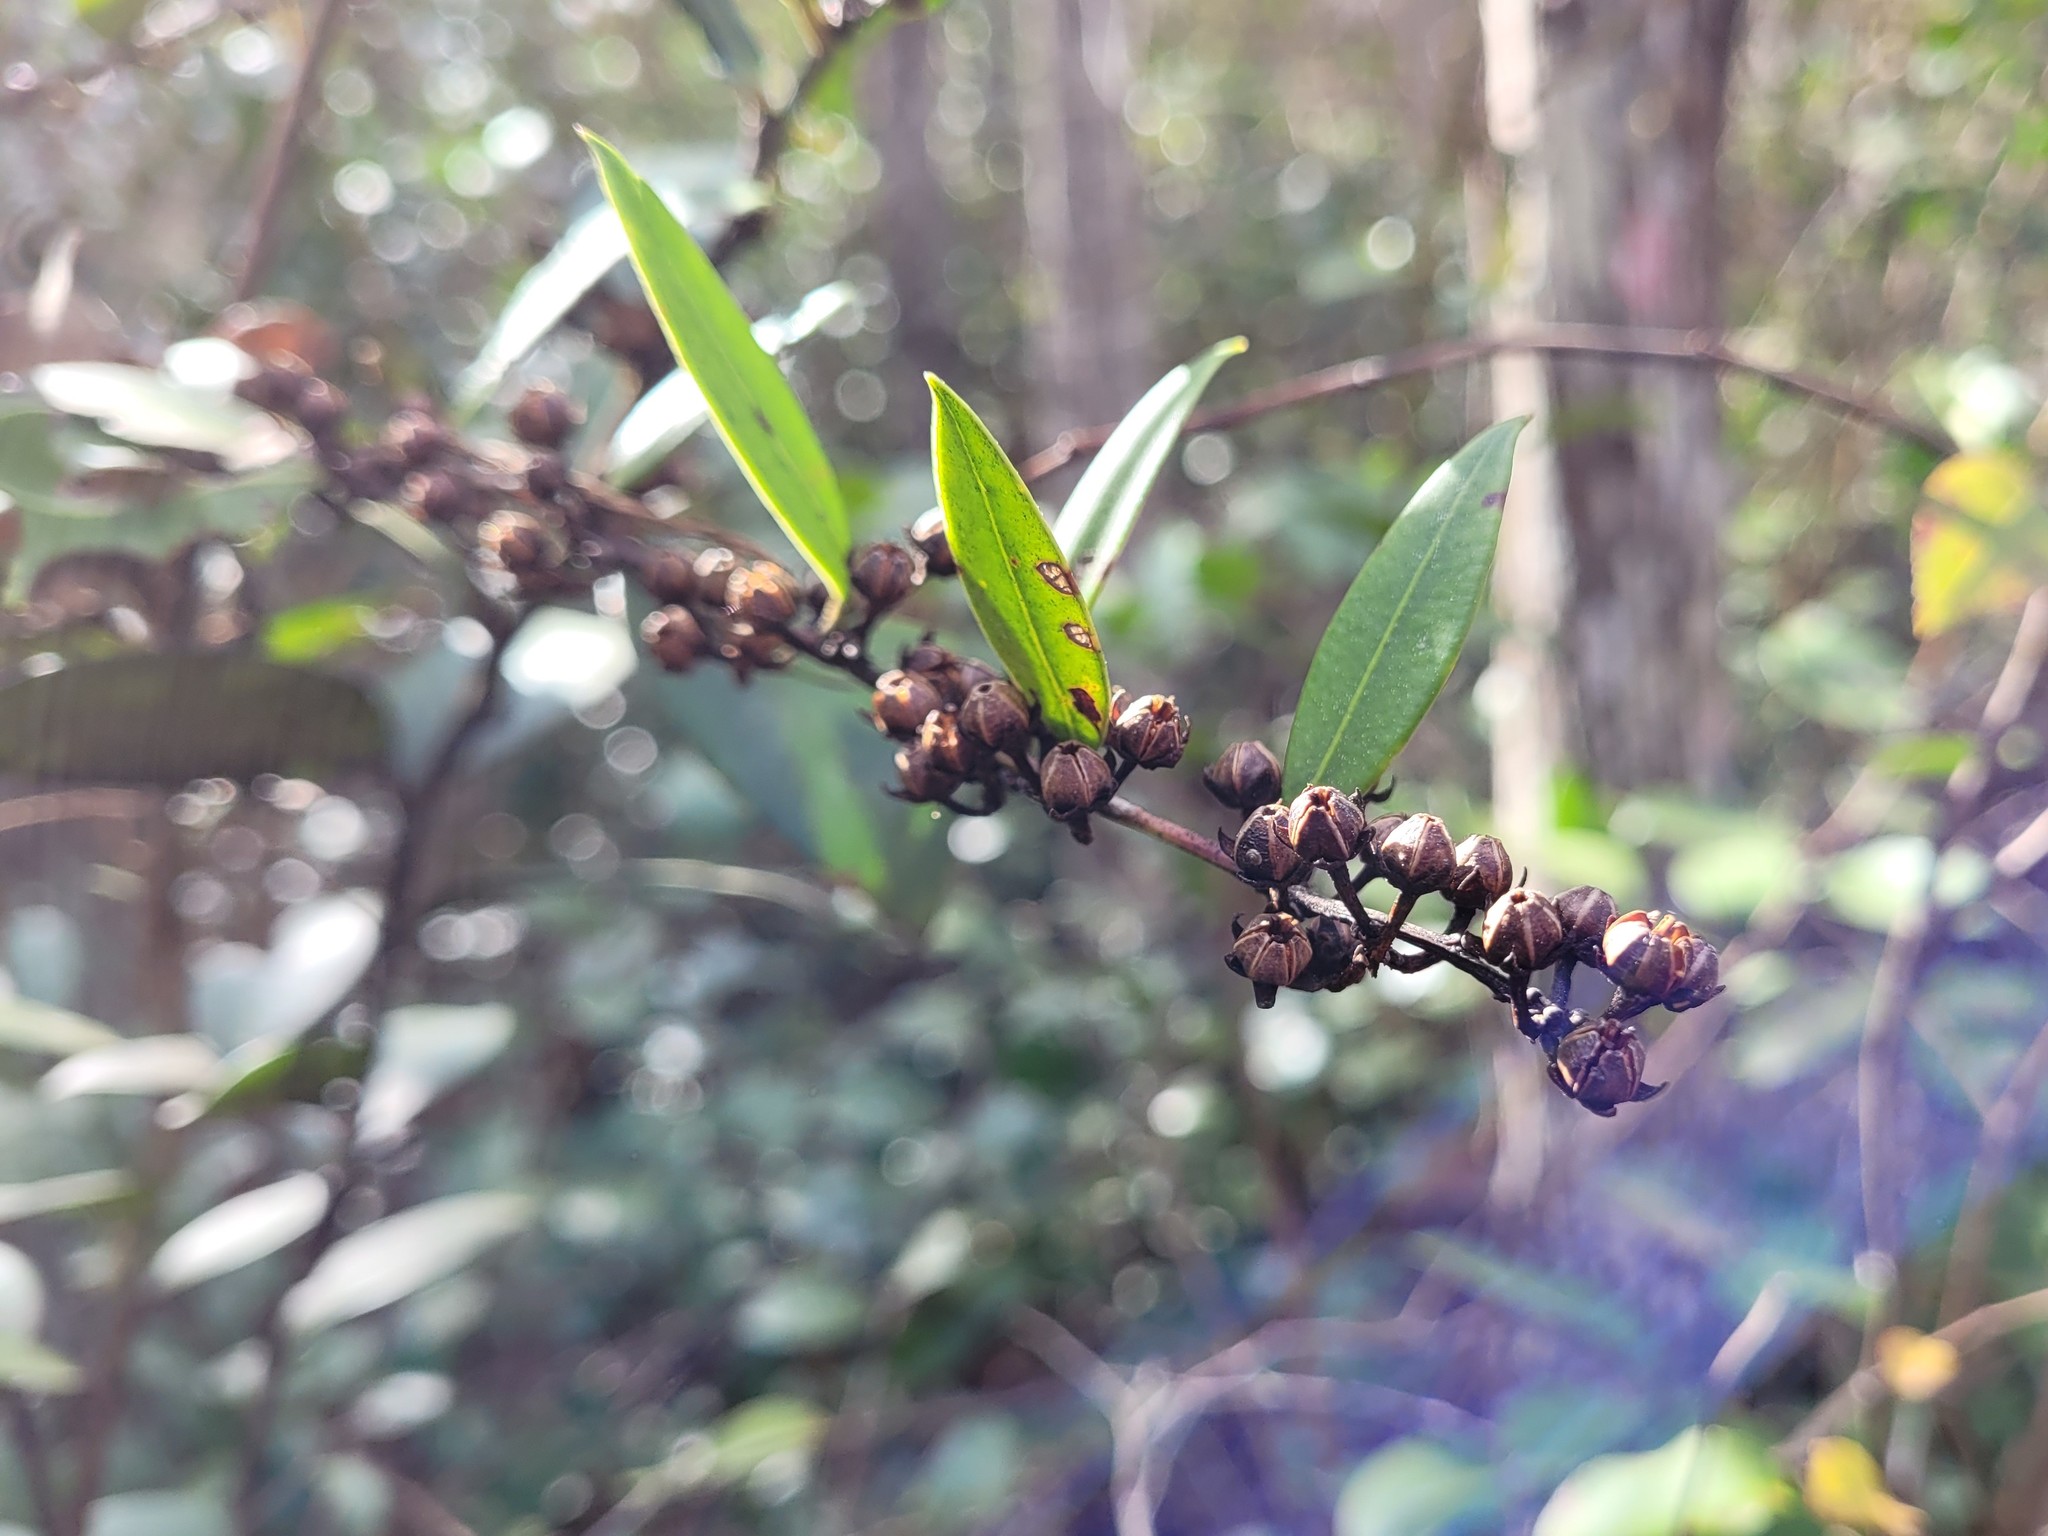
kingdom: Plantae
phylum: Tracheophyta
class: Magnoliopsida
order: Ericales
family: Ericaceae
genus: Lyonia
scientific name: Lyonia lucida
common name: Fetterbush
